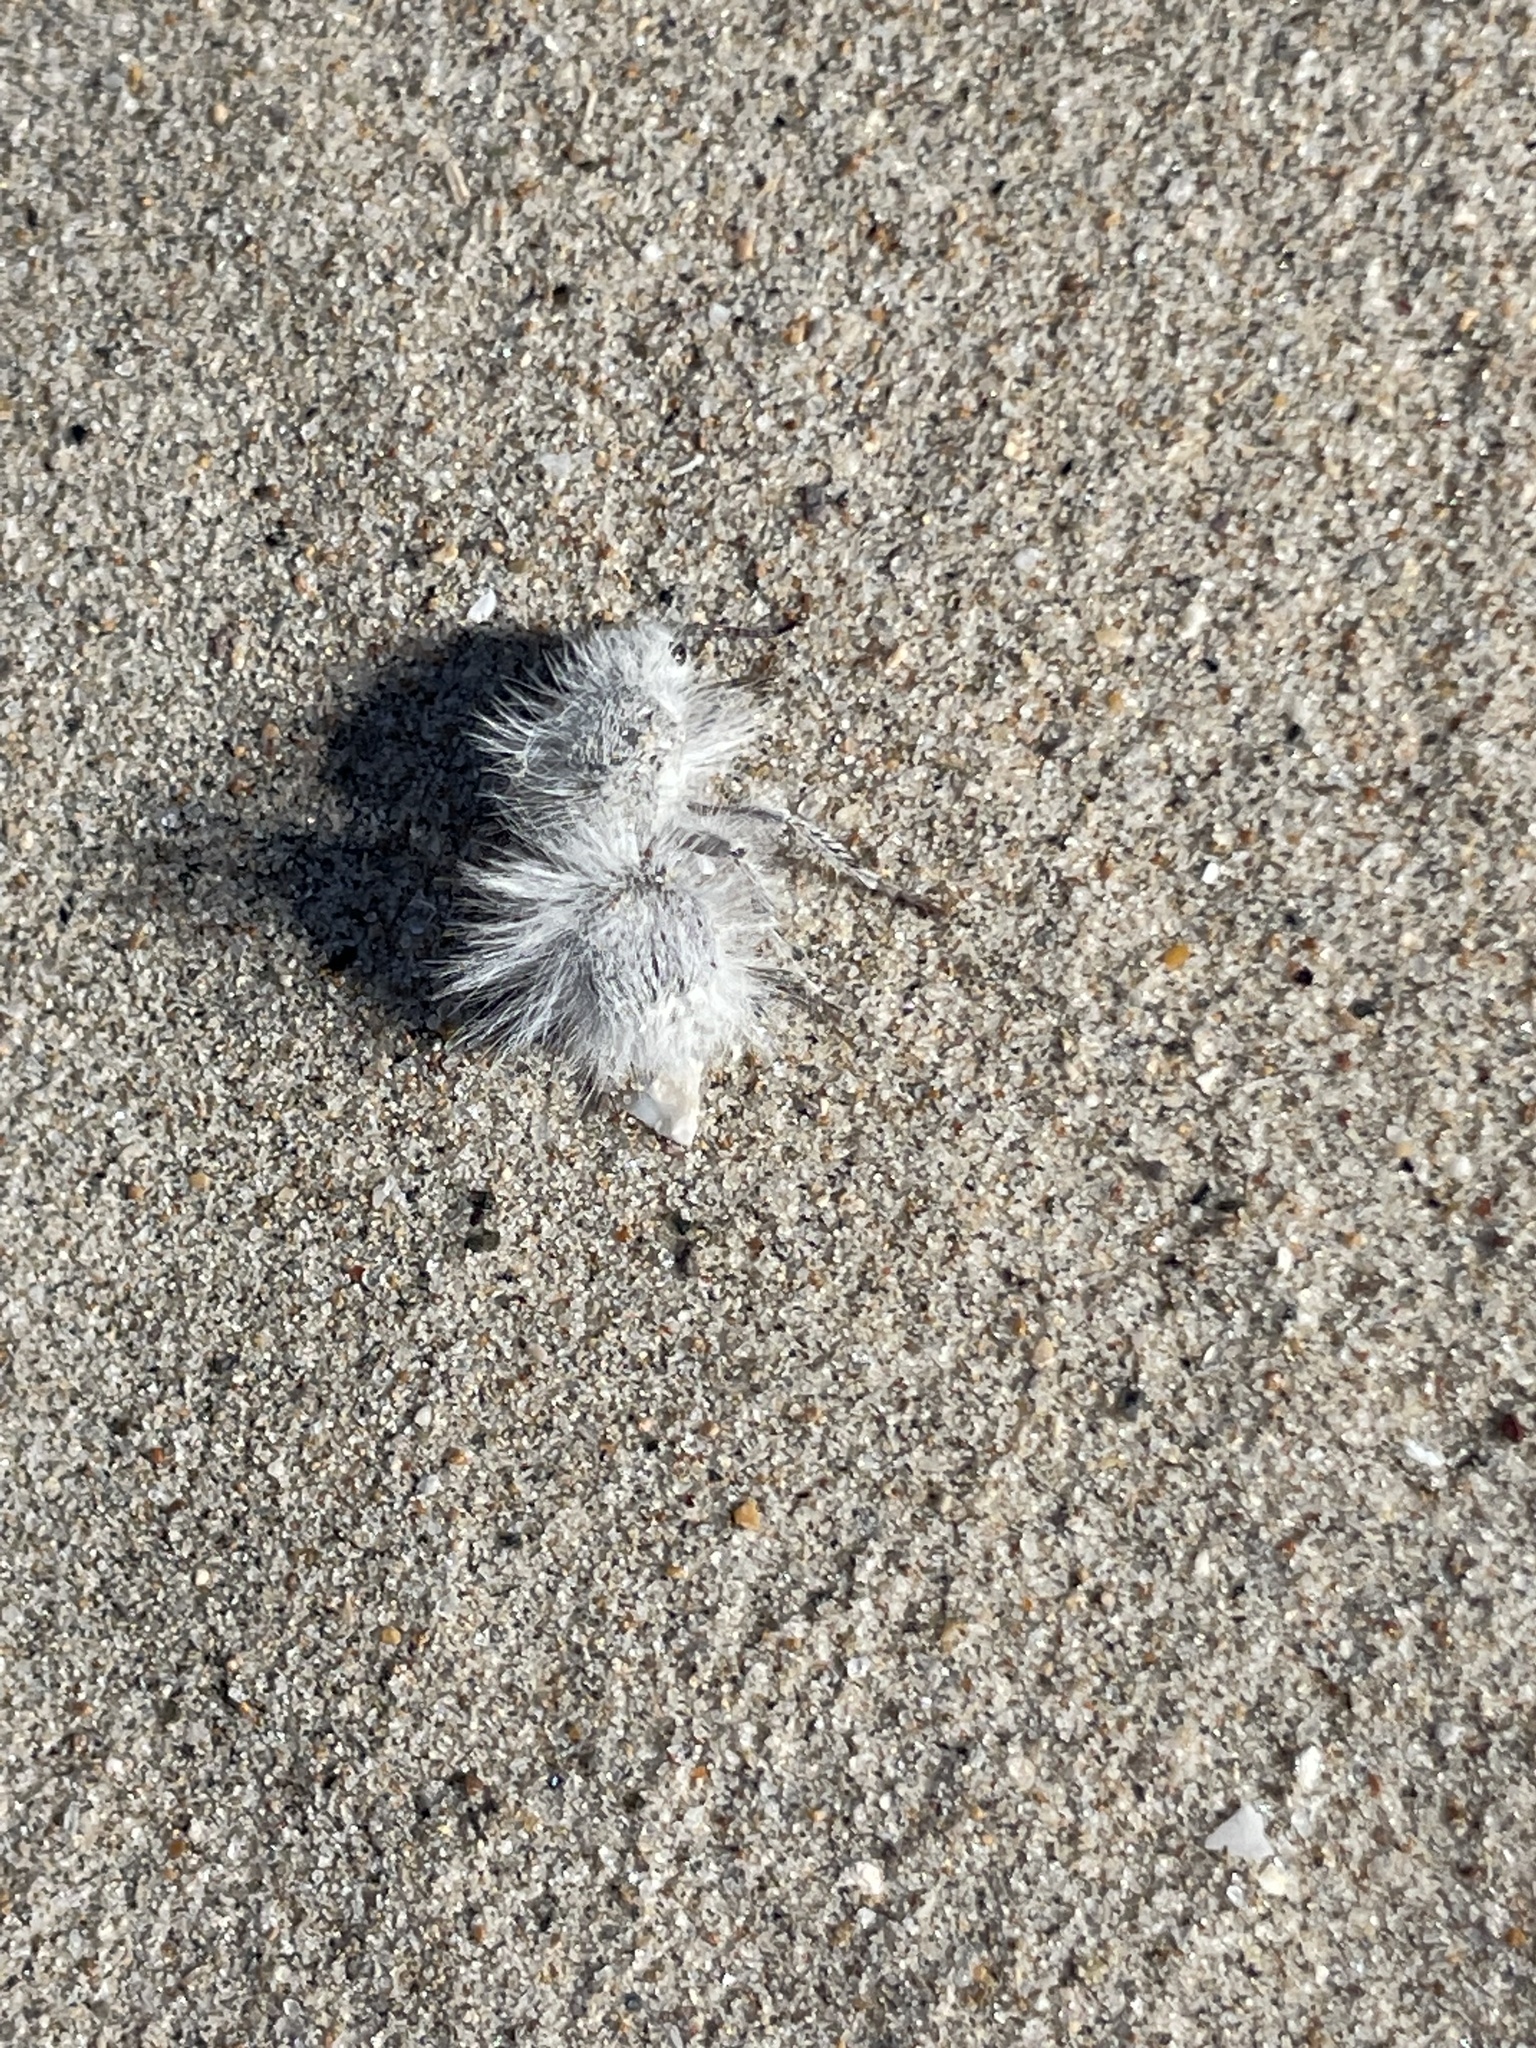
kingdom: Animalia
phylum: Arthropoda
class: Insecta
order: Hymenoptera
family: Mutillidae
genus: Dasymutilla
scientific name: Dasymutilla gloriosa
